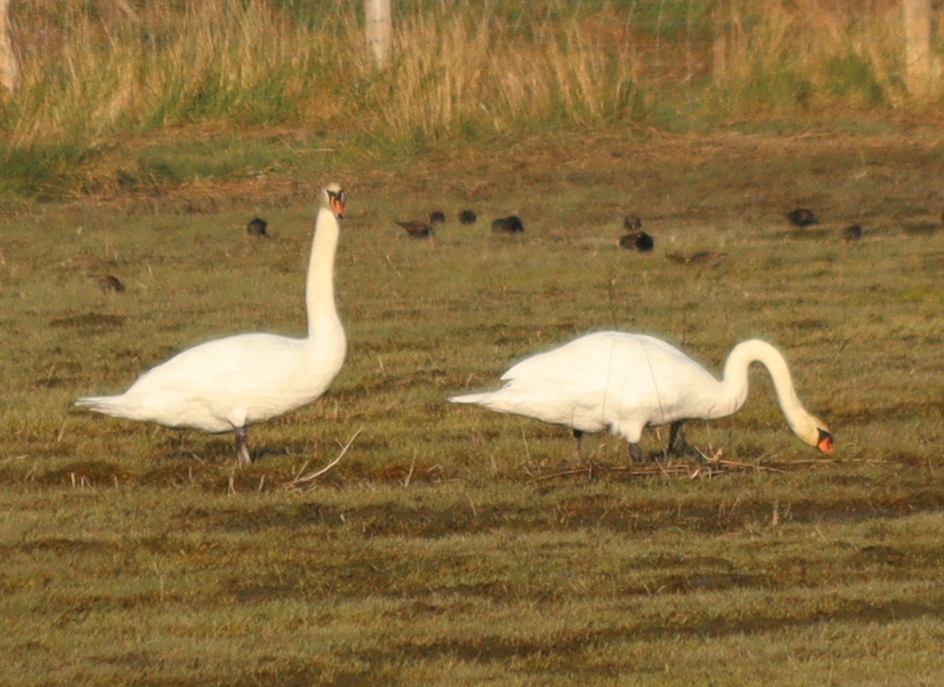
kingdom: Animalia
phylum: Chordata
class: Aves
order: Anseriformes
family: Anatidae
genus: Cygnus
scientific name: Cygnus olor
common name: Mute swan
